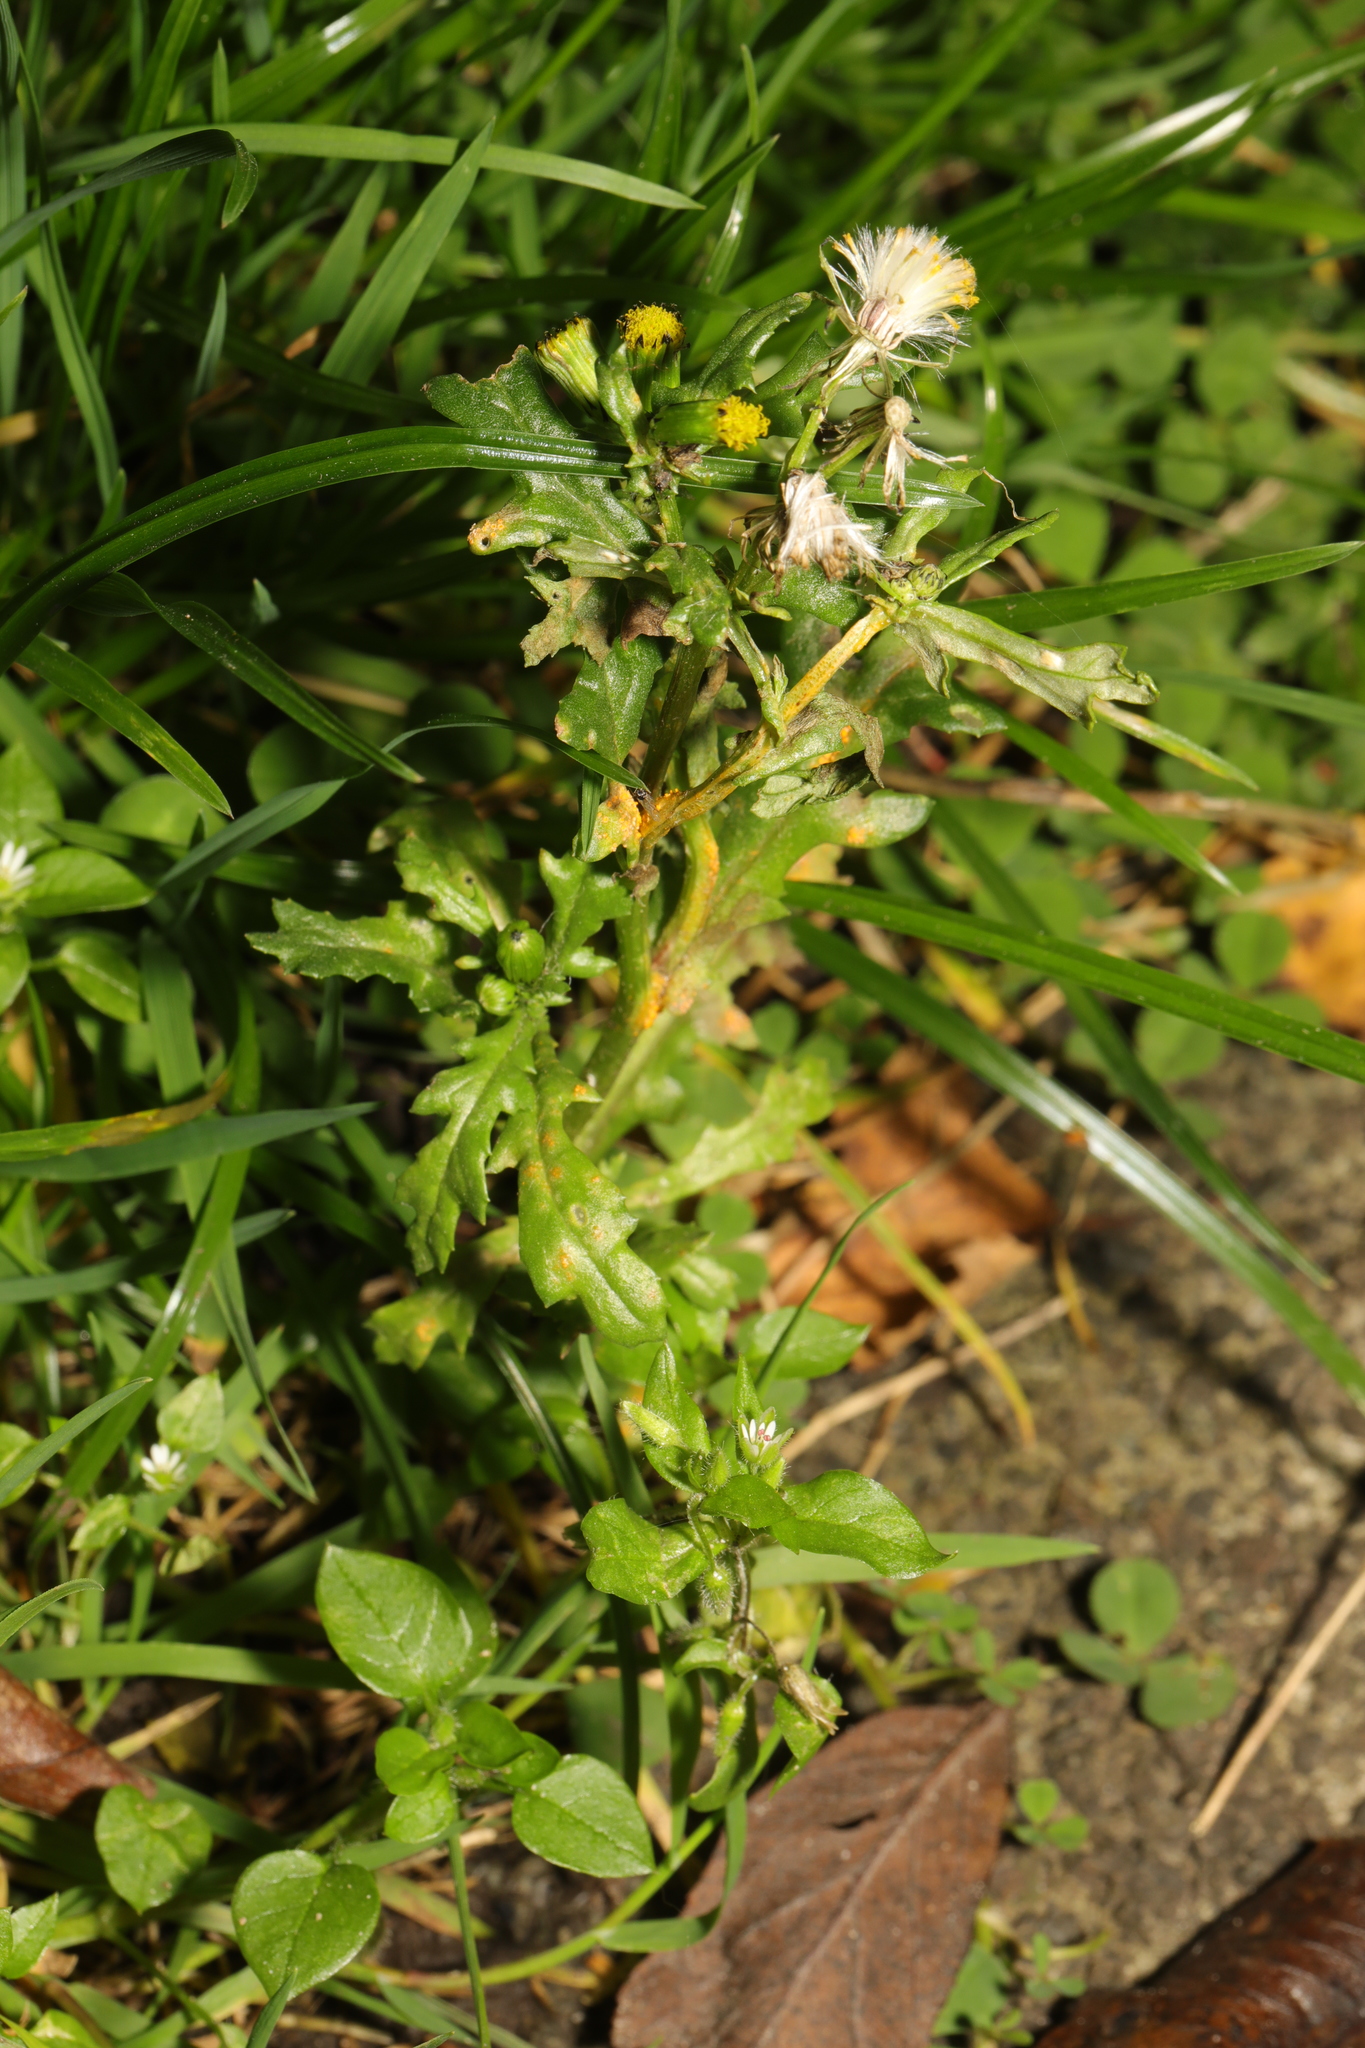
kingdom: Fungi
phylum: Basidiomycota
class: Pucciniomycetes
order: Pucciniales
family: Pucciniaceae
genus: Puccinia
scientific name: Puccinia lagenophorae
